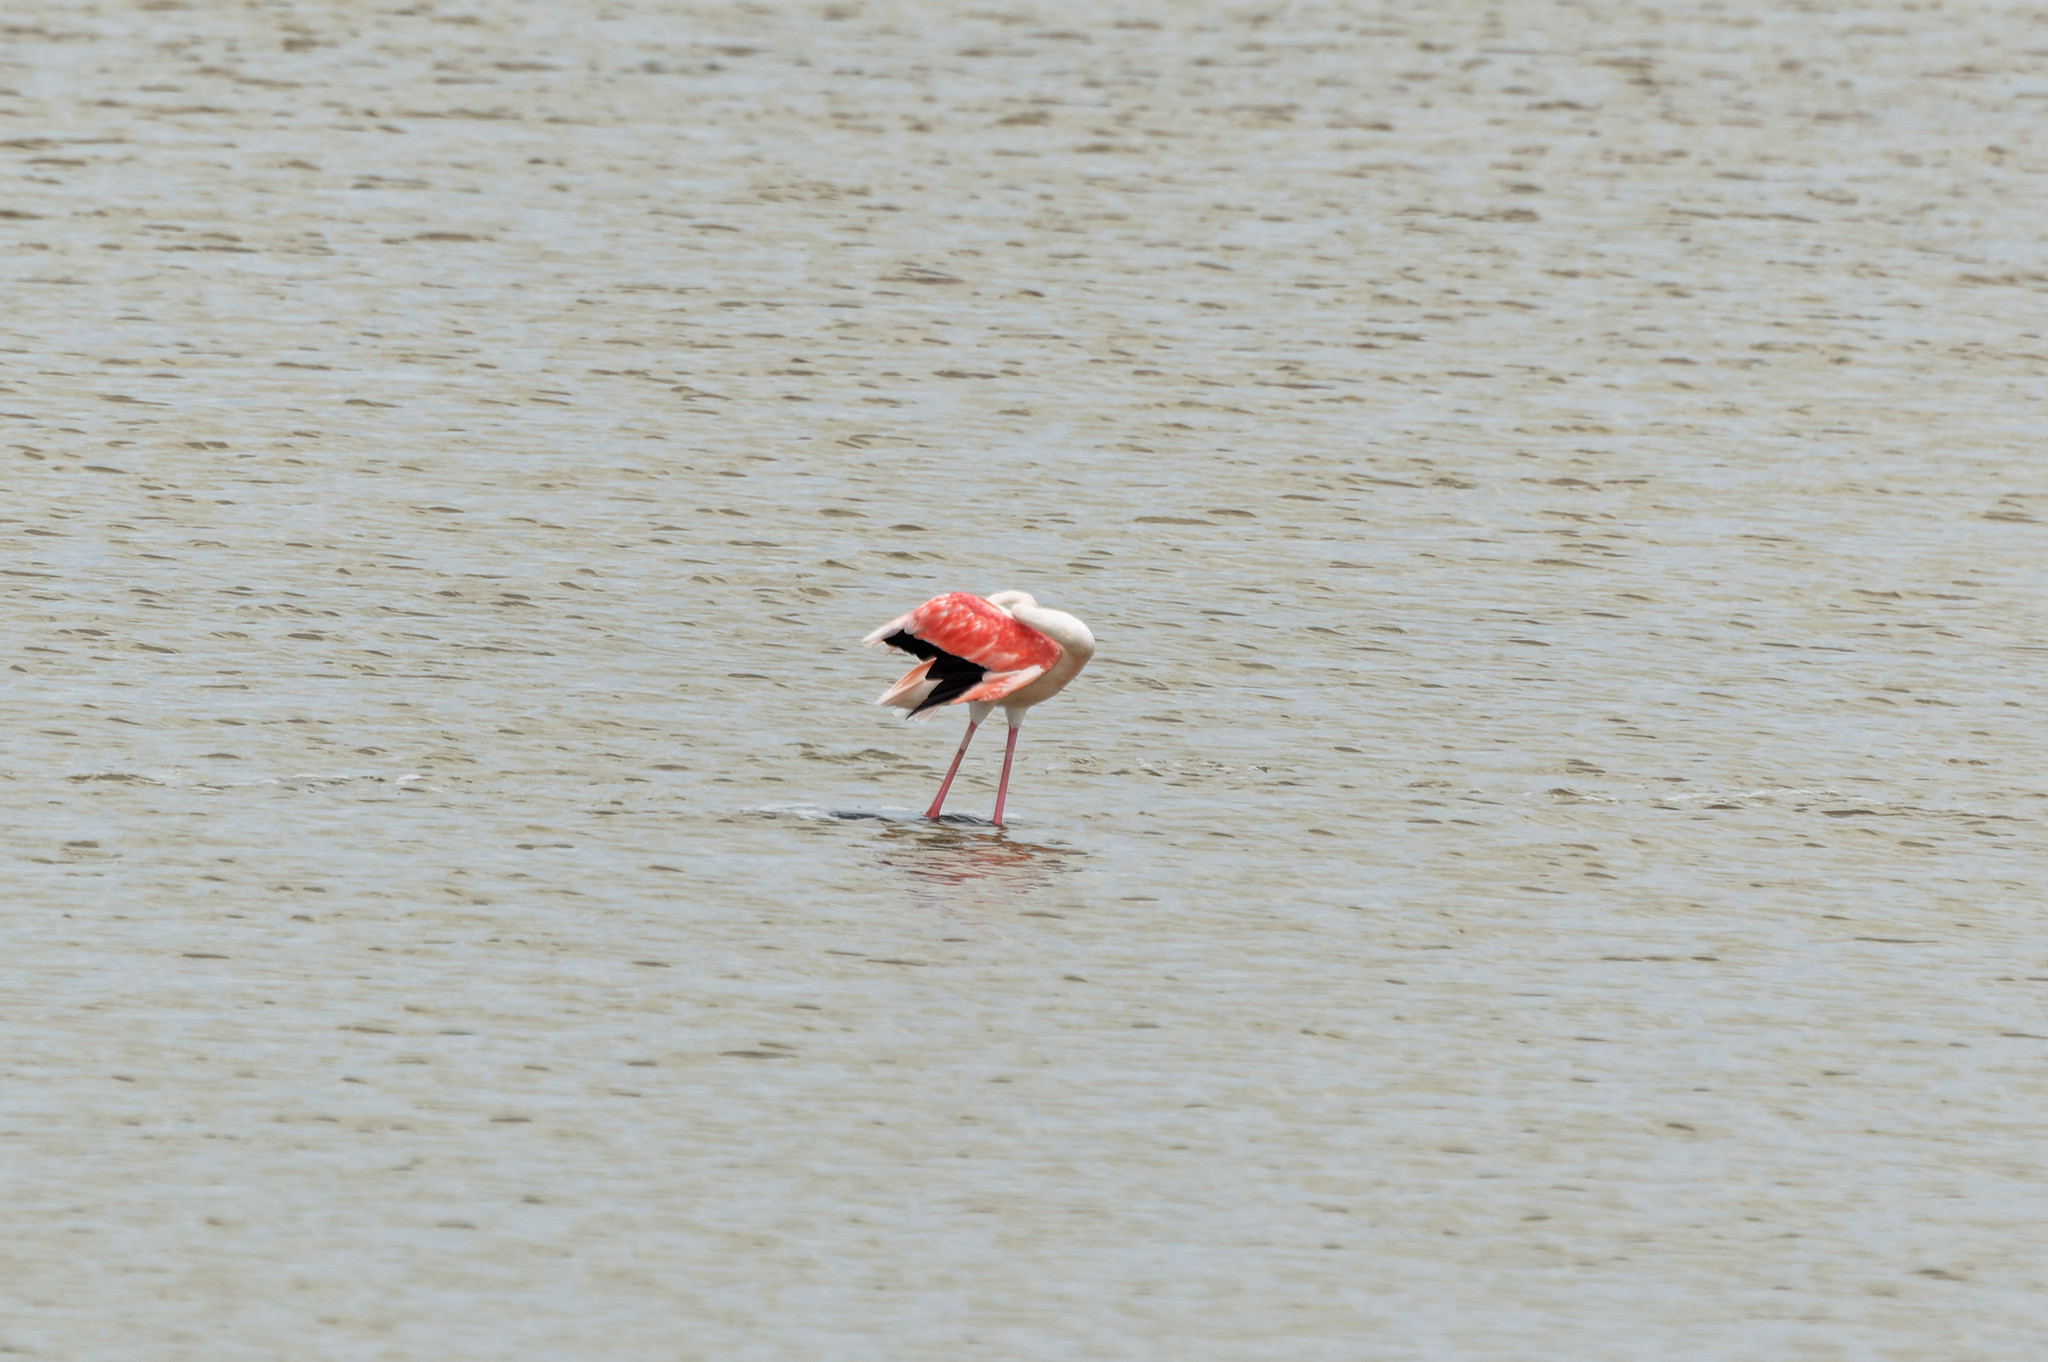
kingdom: Animalia
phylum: Chordata
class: Aves
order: Phoenicopteriformes
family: Phoenicopteridae
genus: Phoenicopterus
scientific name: Phoenicopterus roseus
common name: Greater flamingo
